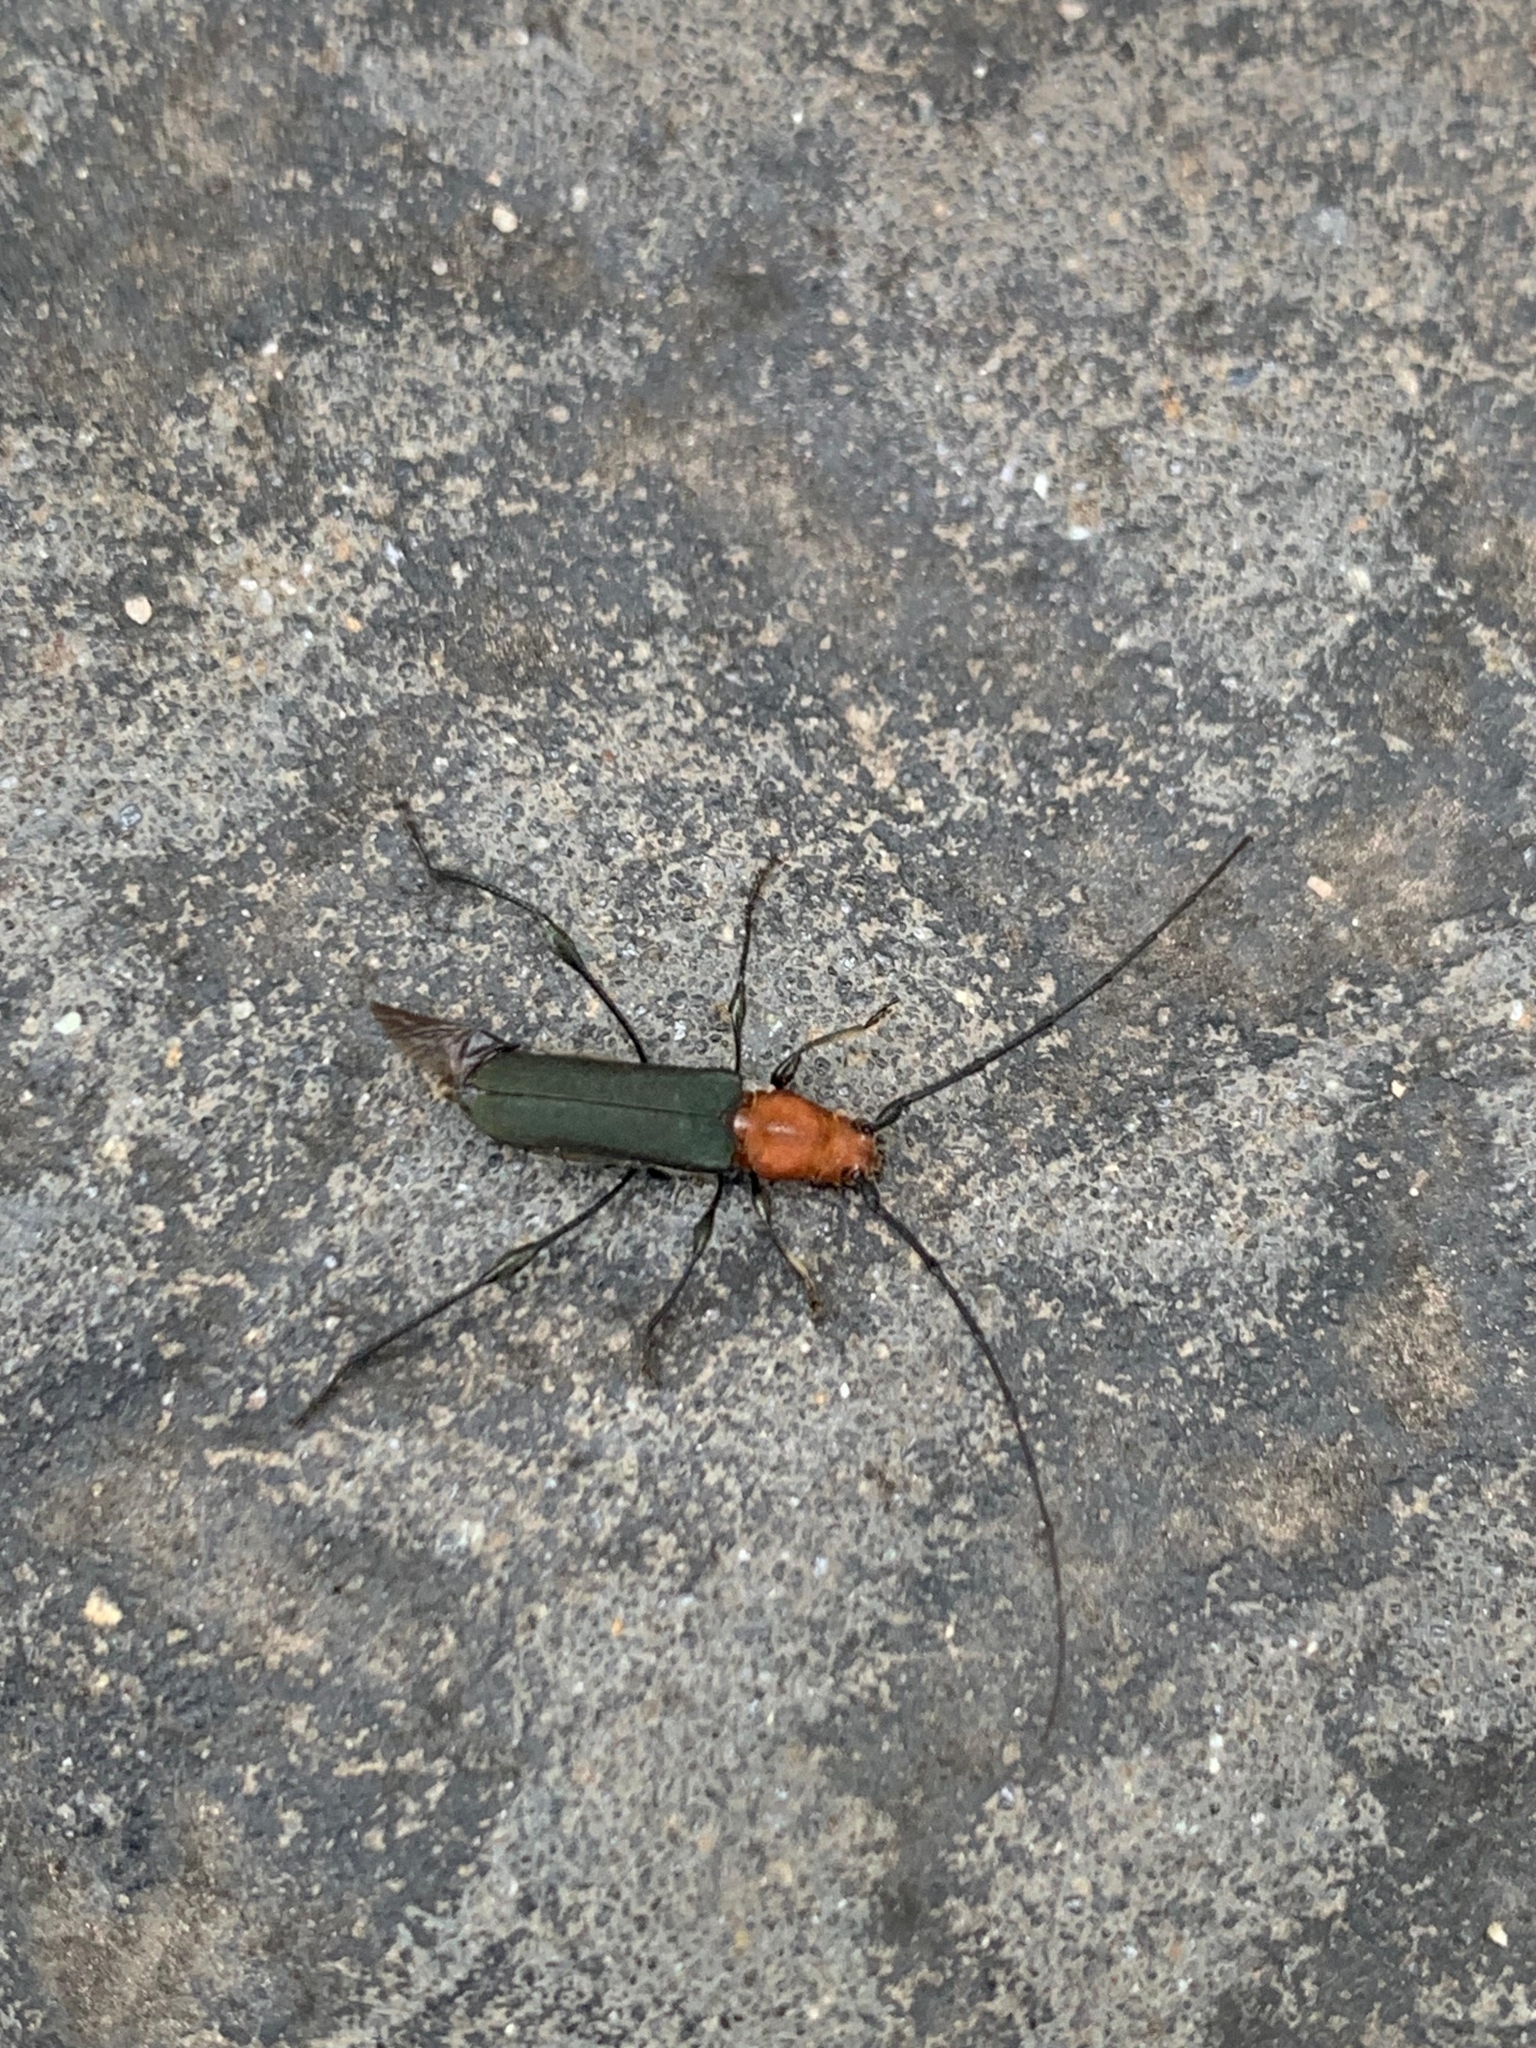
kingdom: Animalia
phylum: Arthropoda
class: Insecta
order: Coleoptera
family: Cerambycidae
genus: Ischionodonta
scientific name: Ischionodonta platensis
